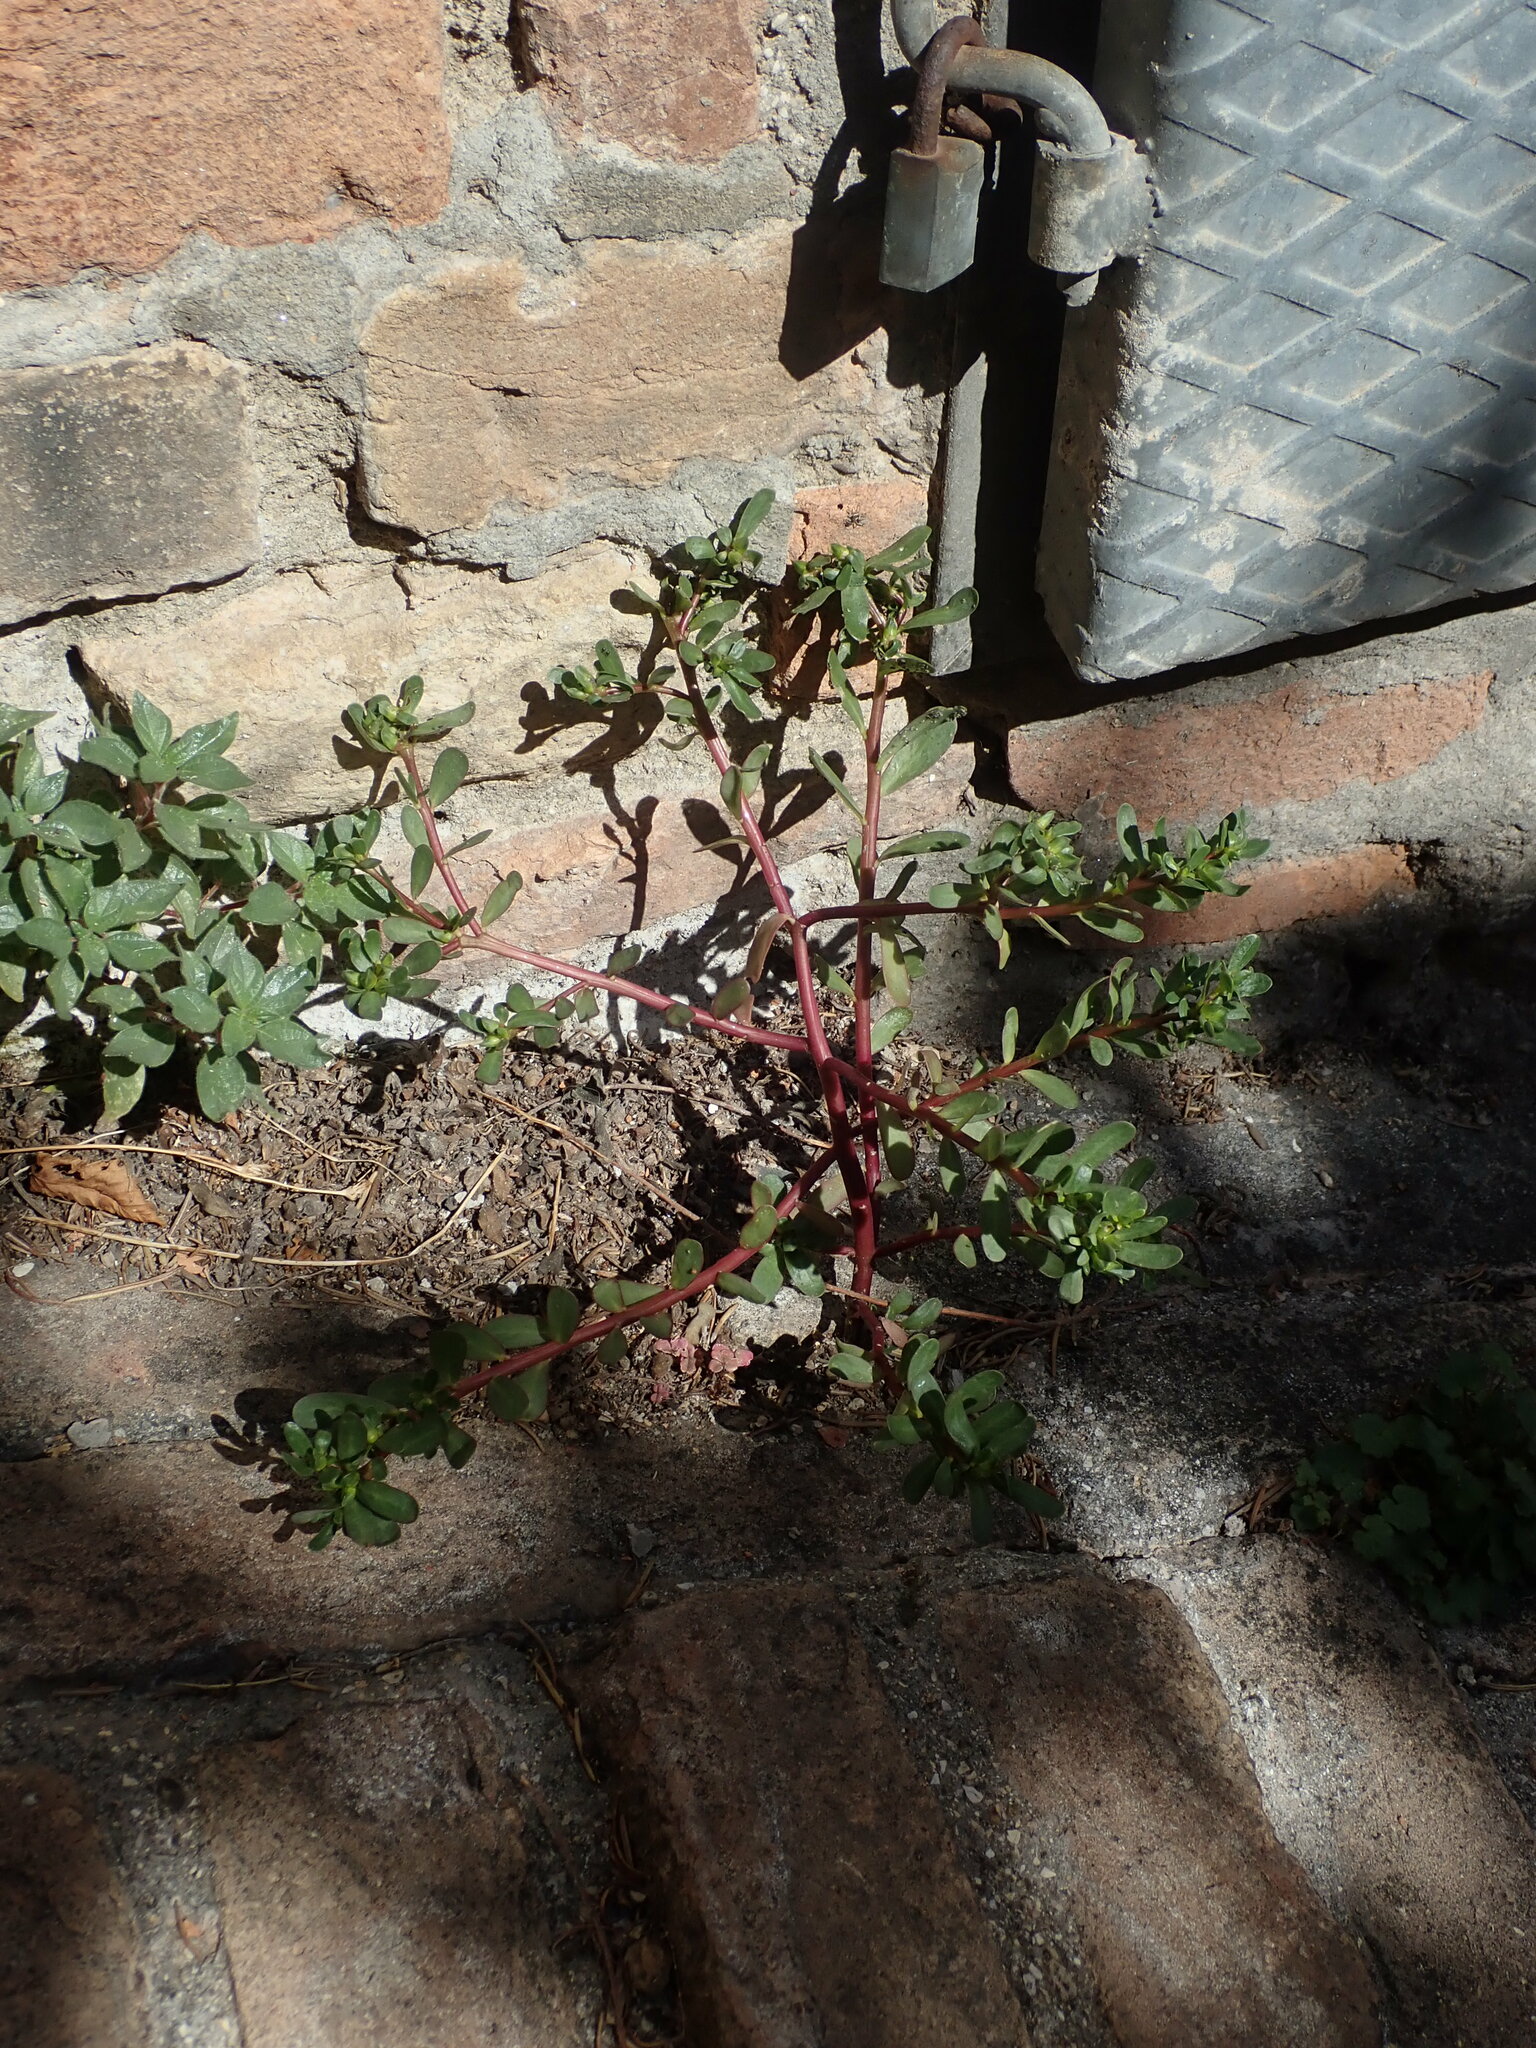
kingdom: Plantae
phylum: Tracheophyta
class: Magnoliopsida
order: Caryophyllales
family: Portulacaceae
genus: Portulaca
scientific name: Portulaca oleracea
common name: Common purslane
